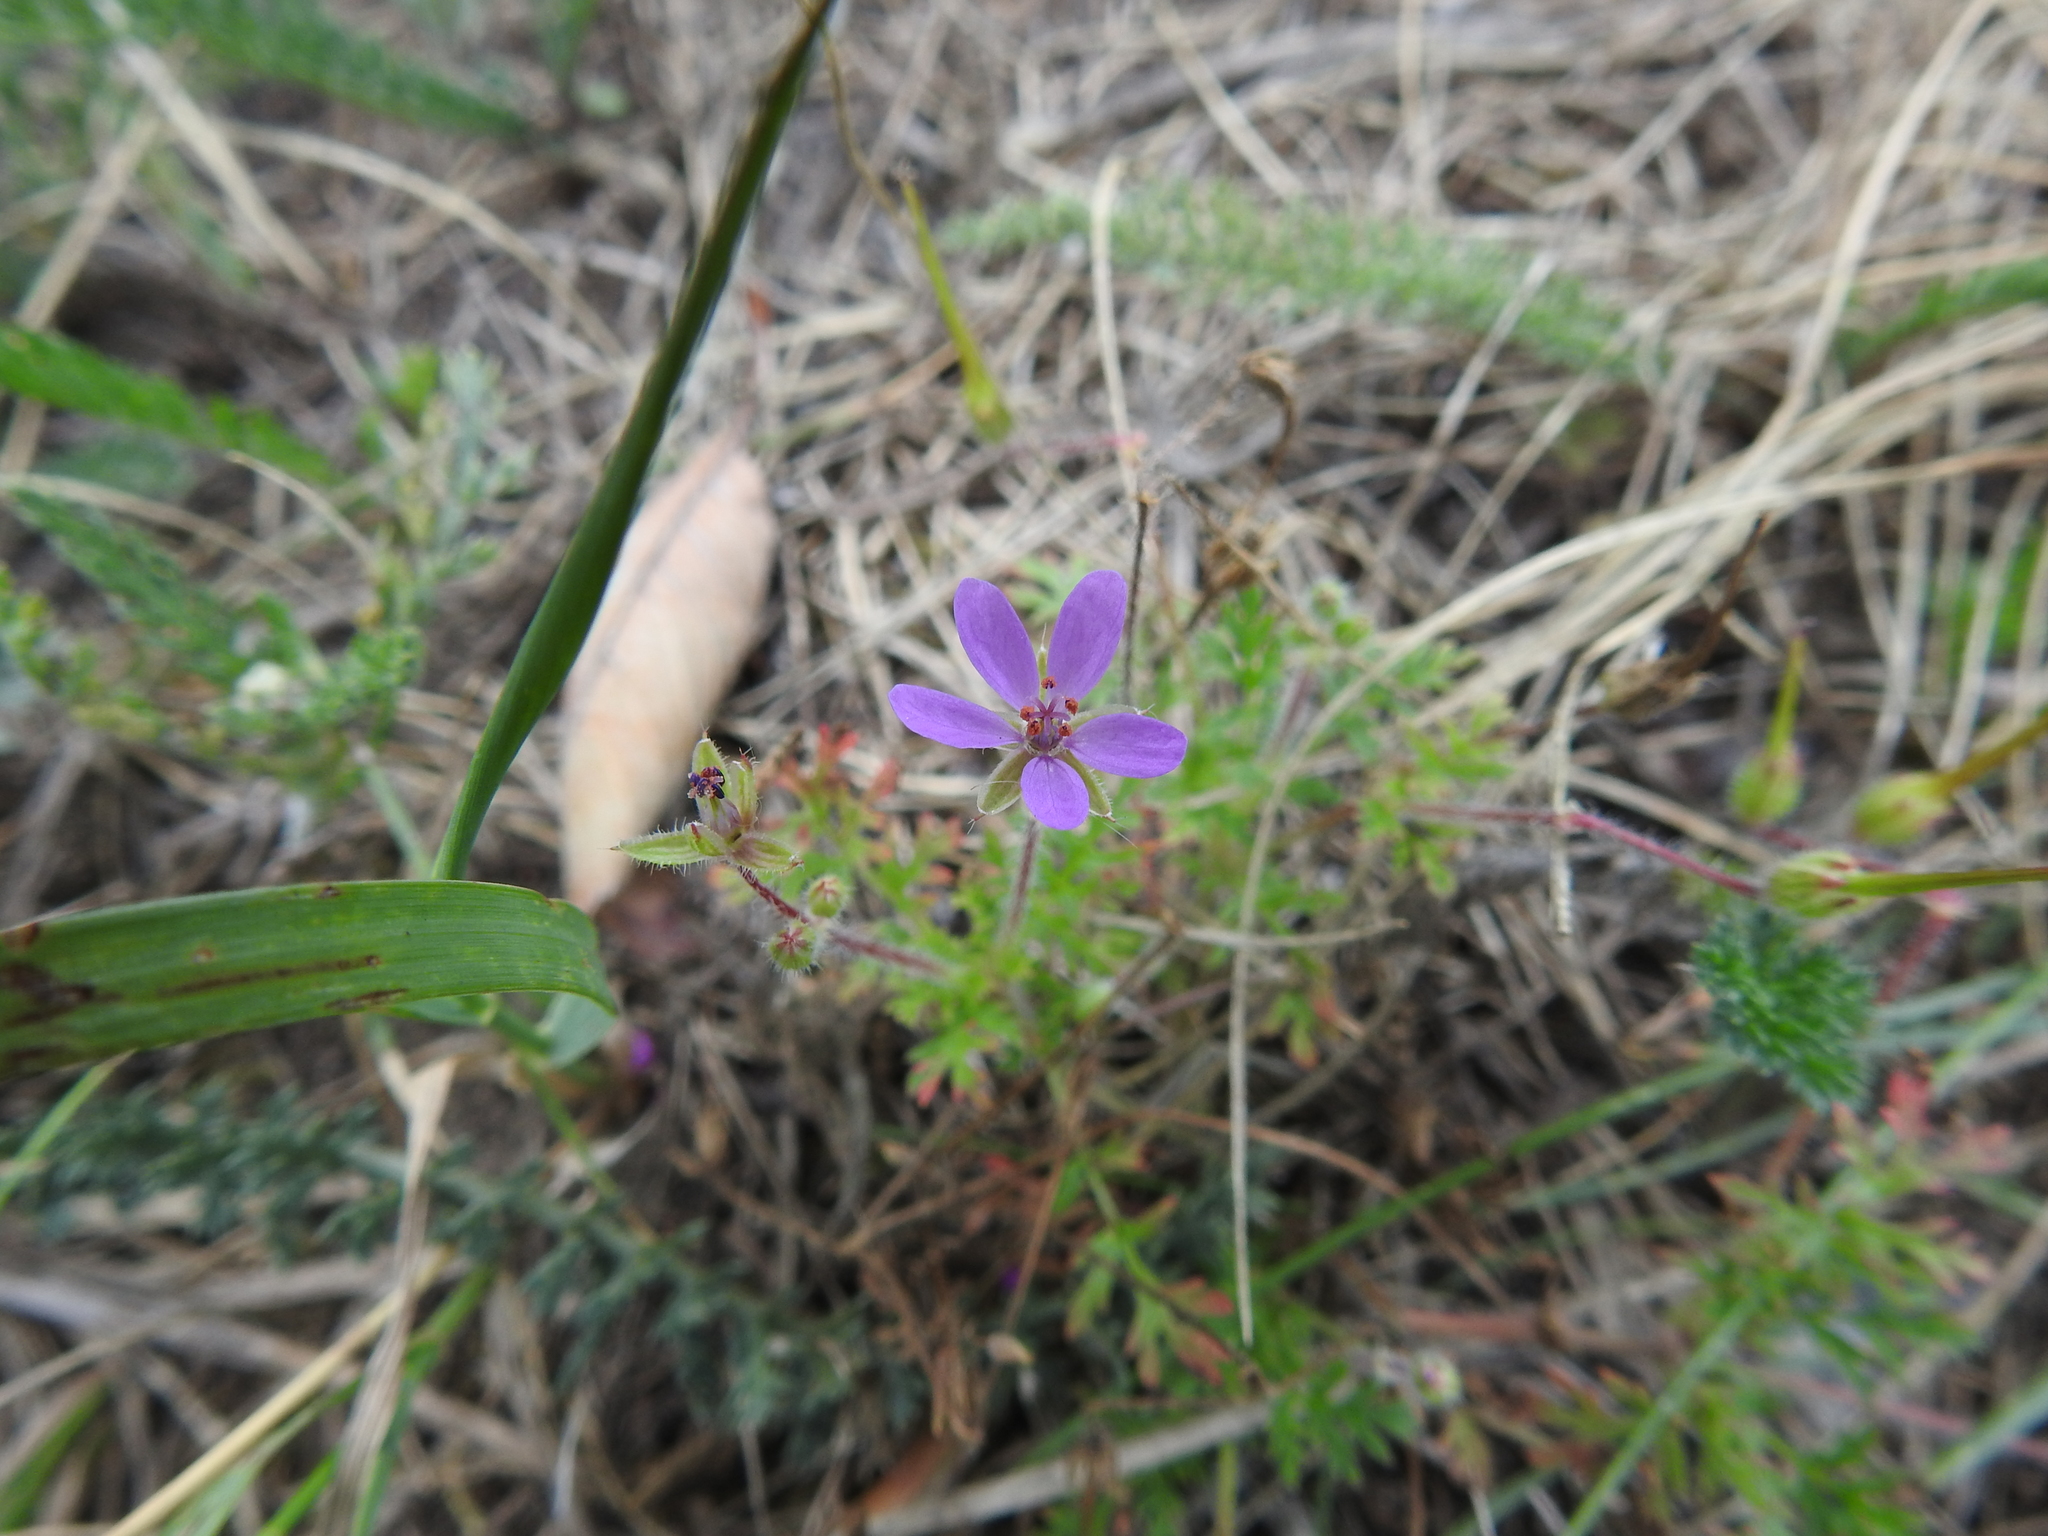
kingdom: Plantae
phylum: Tracheophyta
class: Magnoliopsida
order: Geraniales
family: Geraniaceae
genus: Erodium
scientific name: Erodium cicutarium
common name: Common stork's-bill
